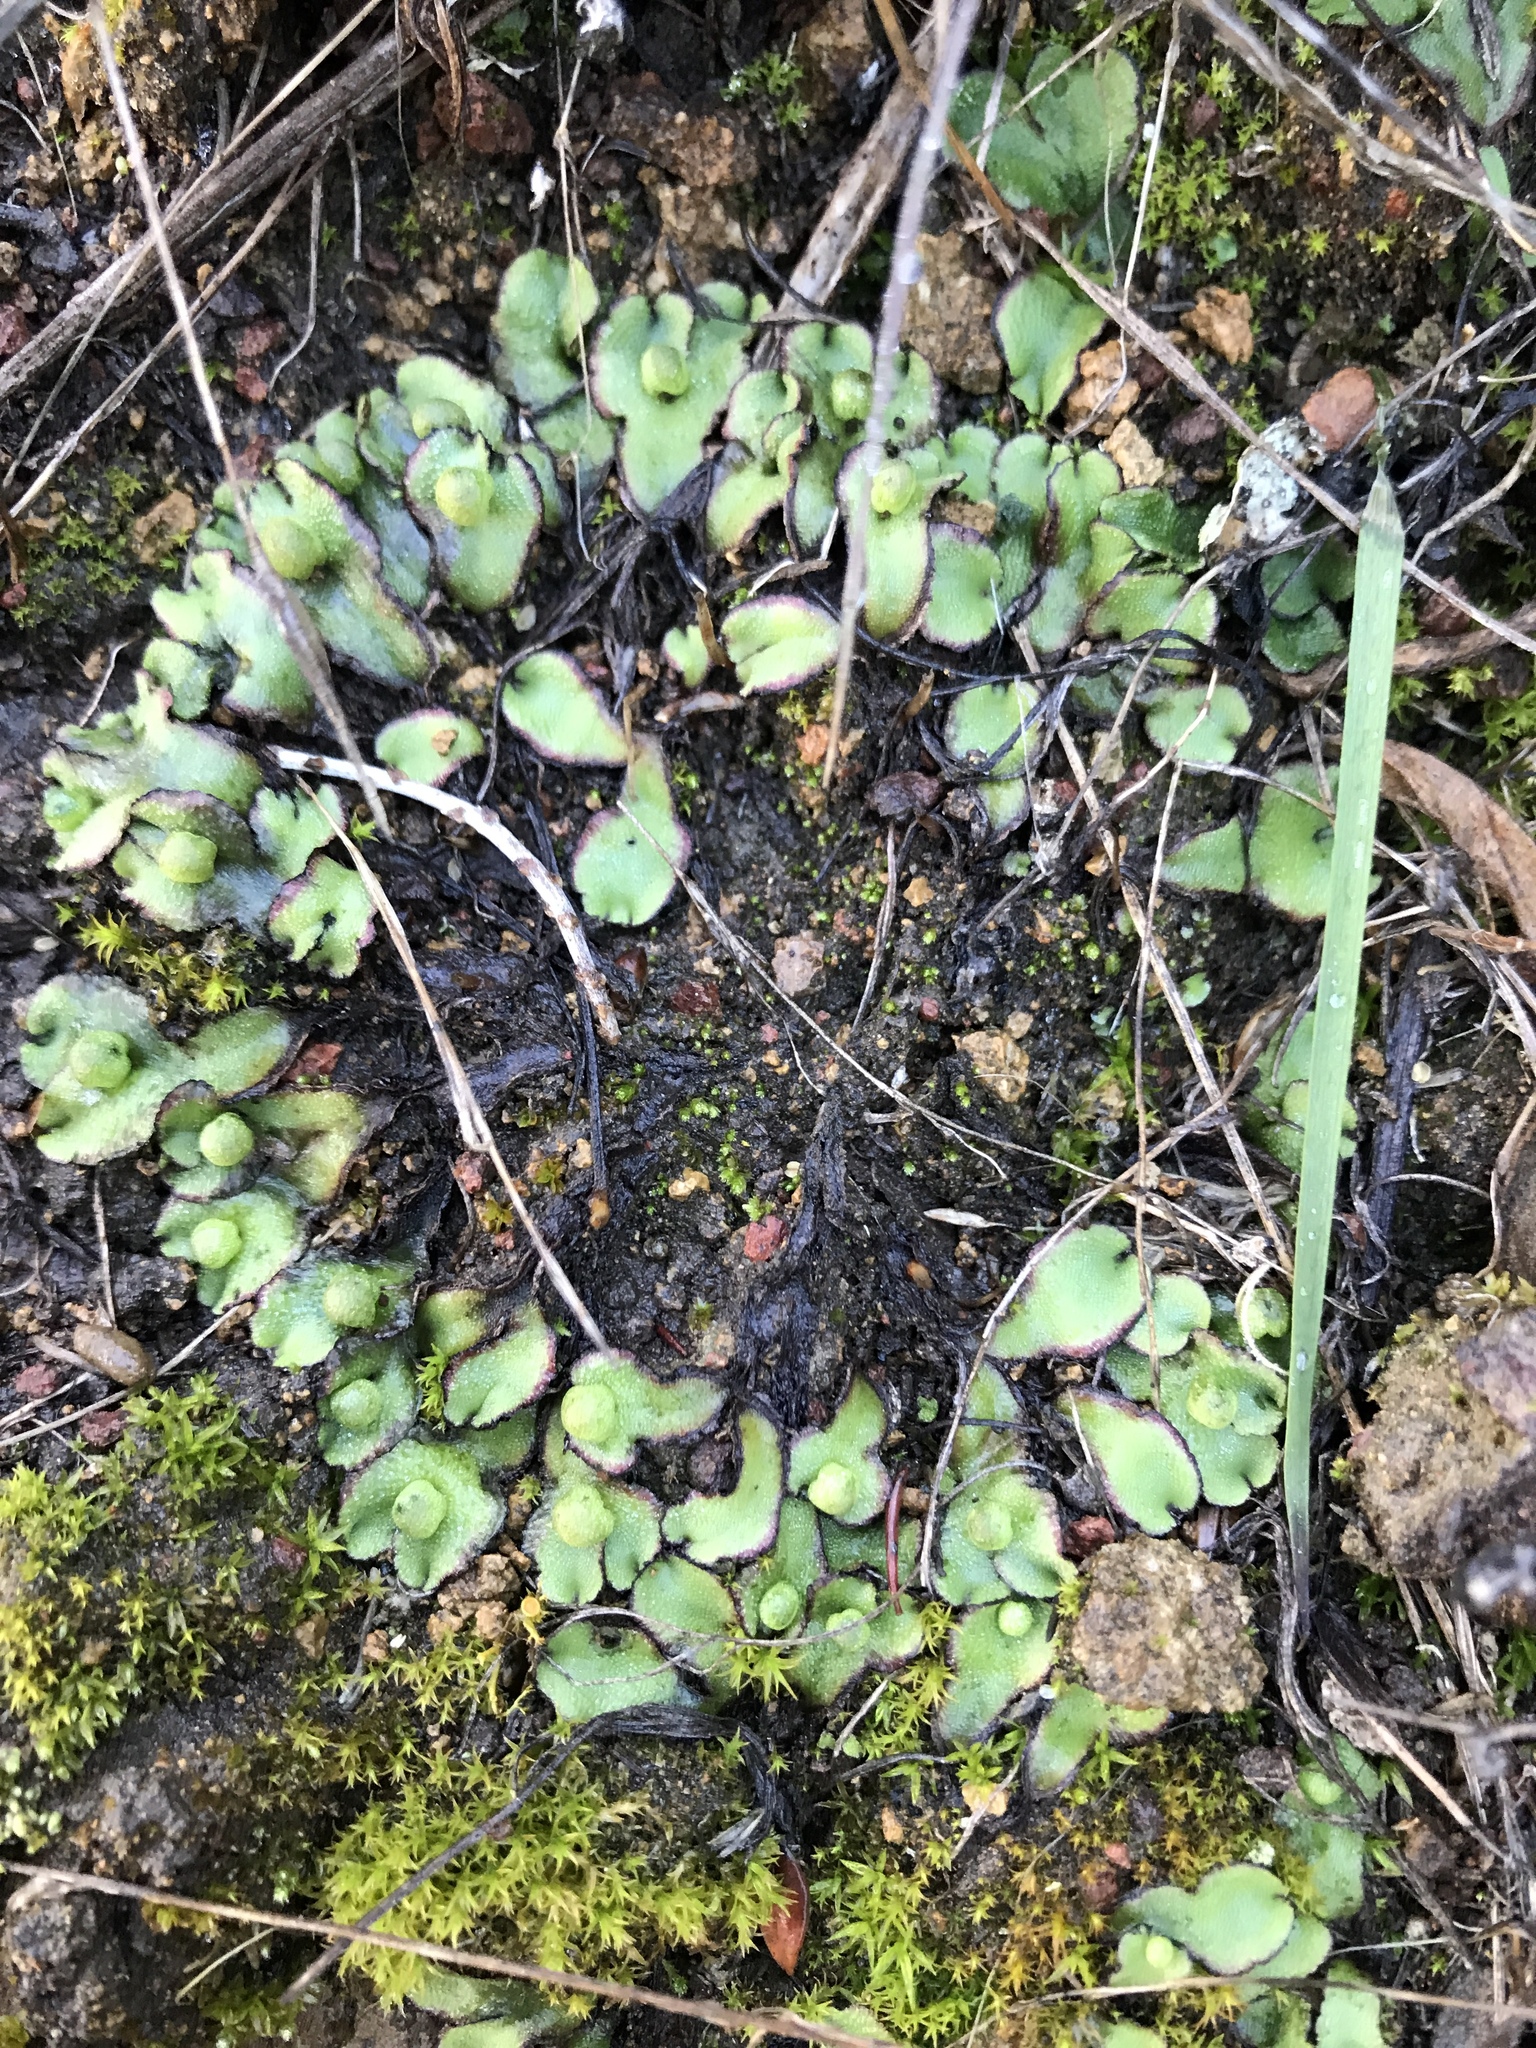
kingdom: Plantae
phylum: Marchantiophyta
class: Marchantiopsida
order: Marchantiales
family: Aytoniaceae
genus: Asterella
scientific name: Asterella californica
